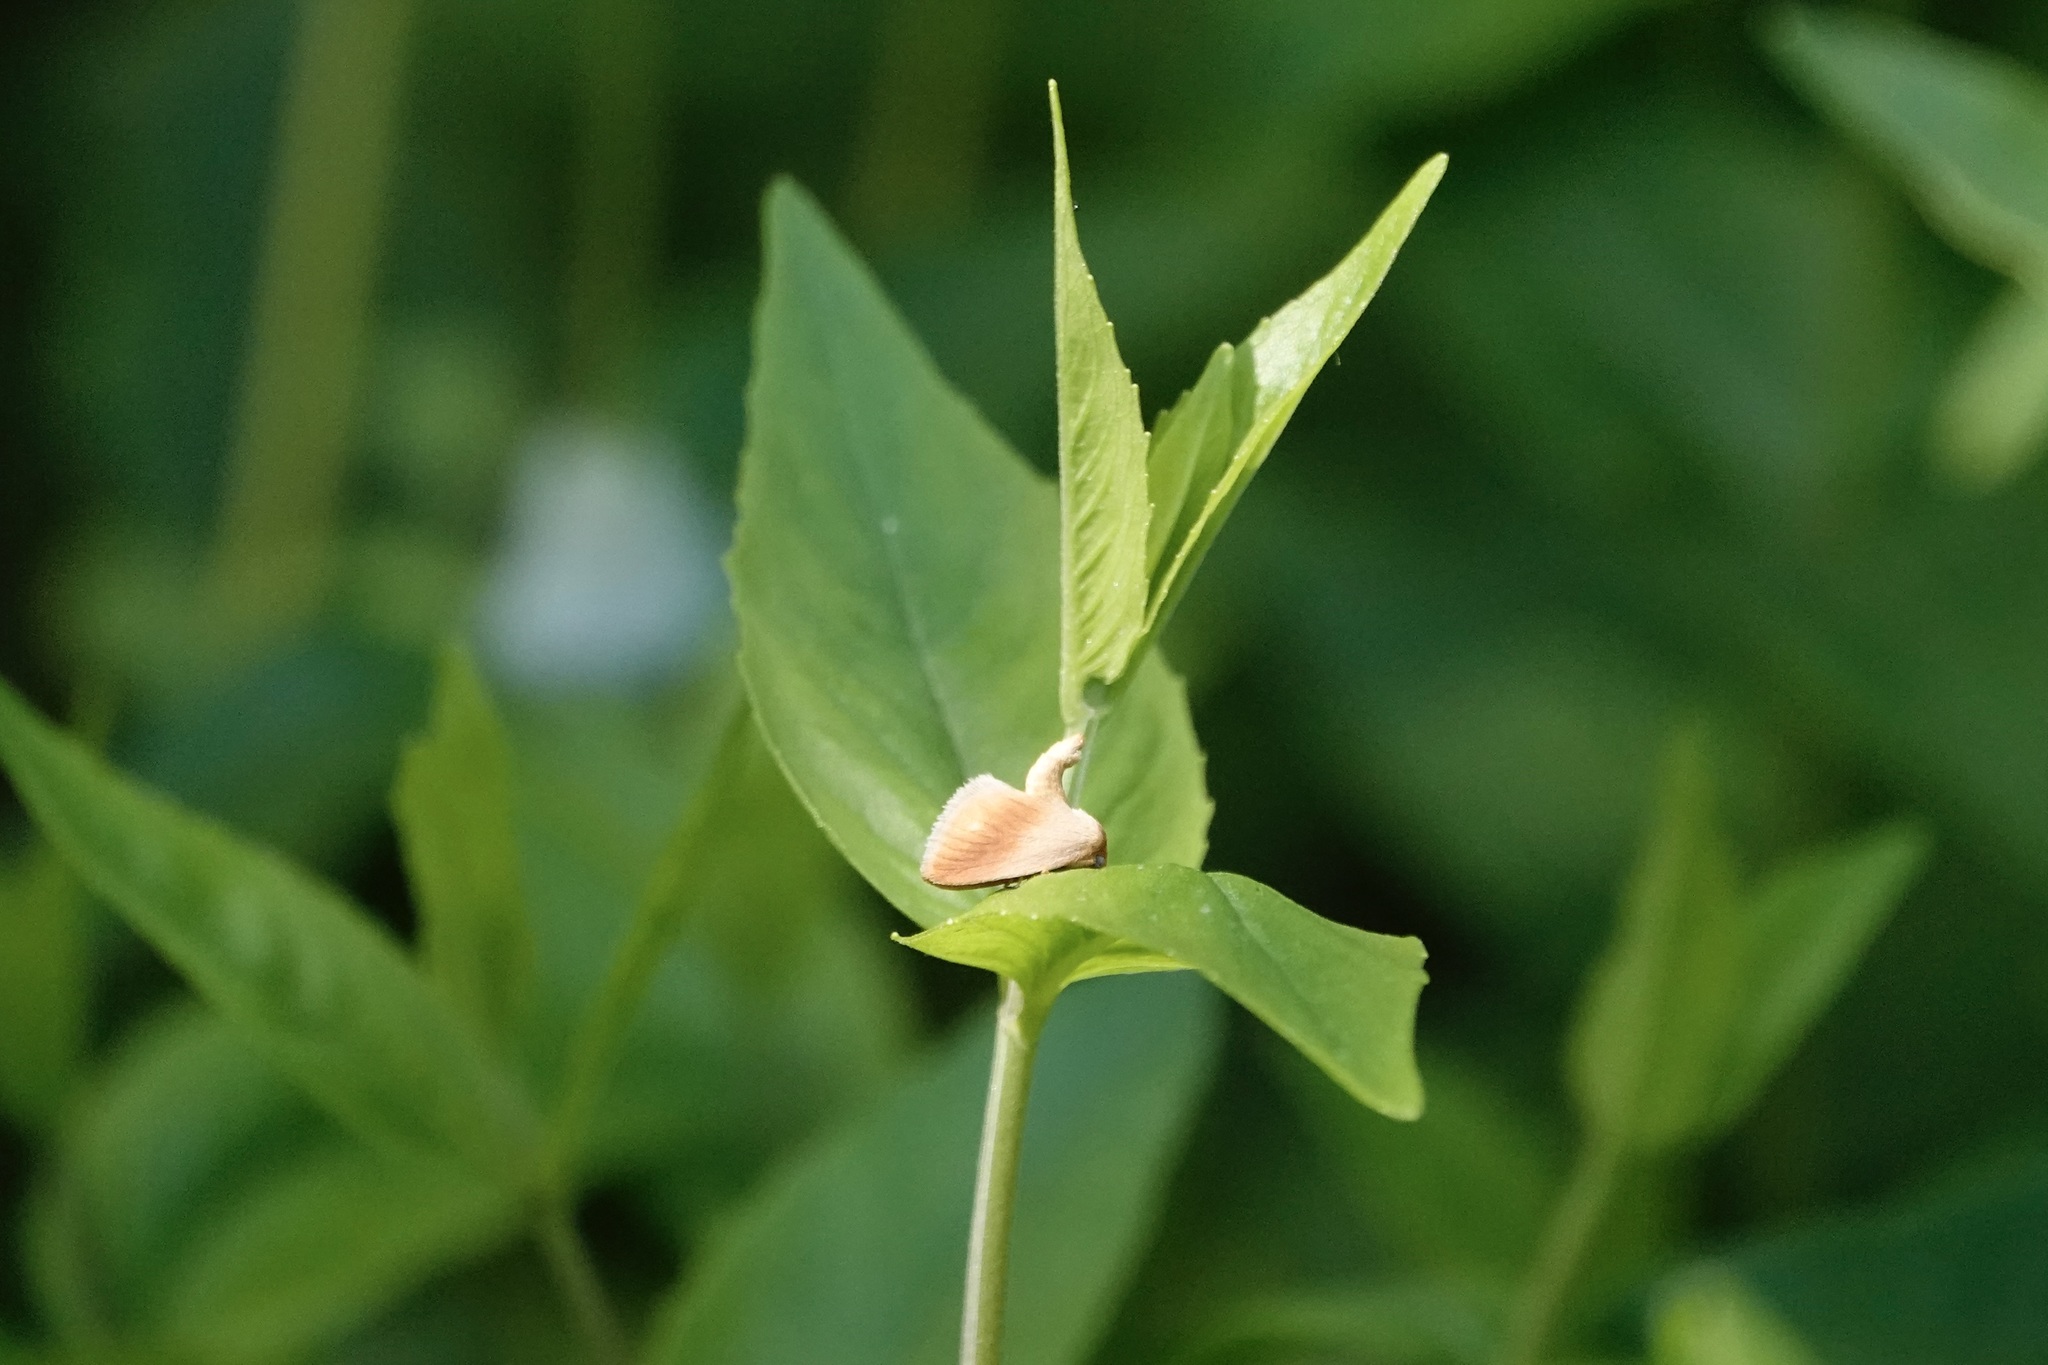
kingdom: Animalia
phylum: Arthropoda
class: Insecta
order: Lepidoptera
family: Limacodidae
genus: Tortricidia
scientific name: Tortricidia testacea
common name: Early button slug moth
